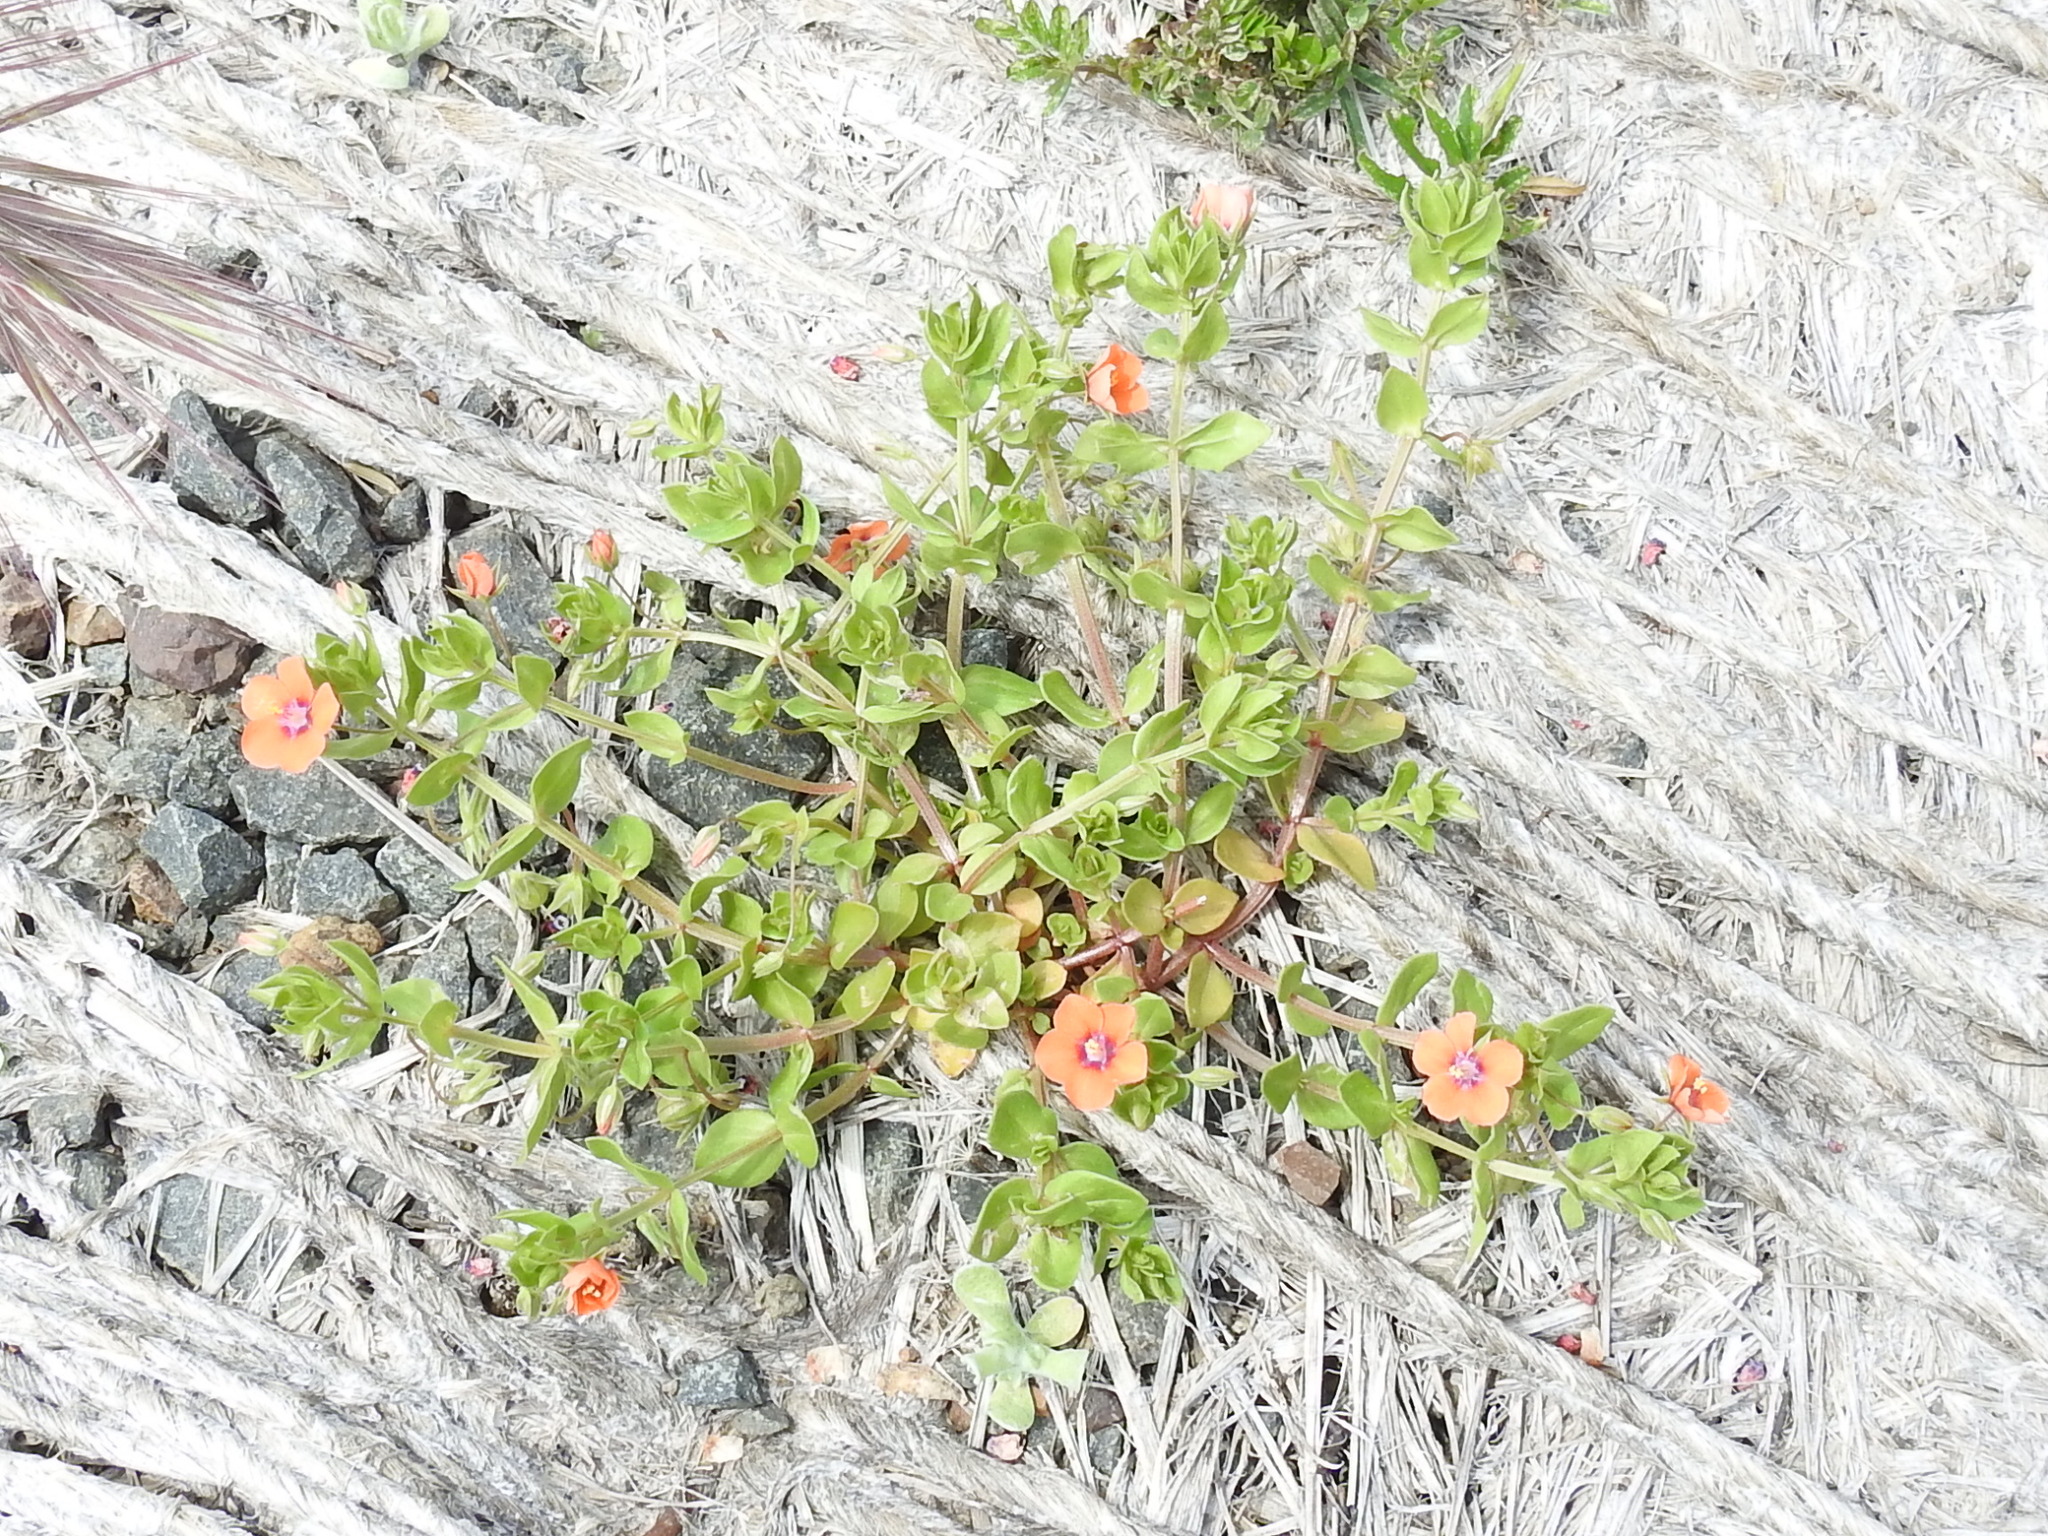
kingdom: Plantae
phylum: Tracheophyta
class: Magnoliopsida
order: Ericales
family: Primulaceae
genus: Lysimachia
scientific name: Lysimachia arvensis
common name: Scarlet pimpernel
